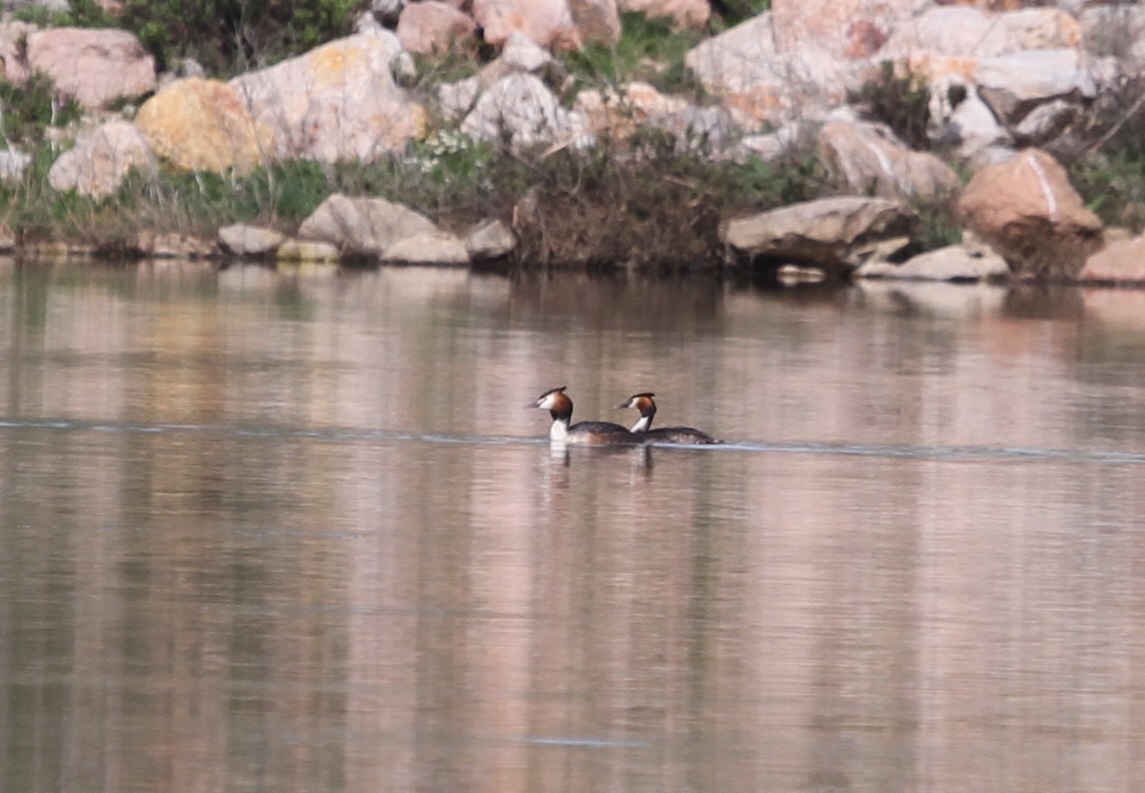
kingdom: Animalia
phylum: Chordata
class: Aves
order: Podicipediformes
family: Podicipedidae
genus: Podiceps
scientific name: Podiceps cristatus
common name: Great crested grebe
